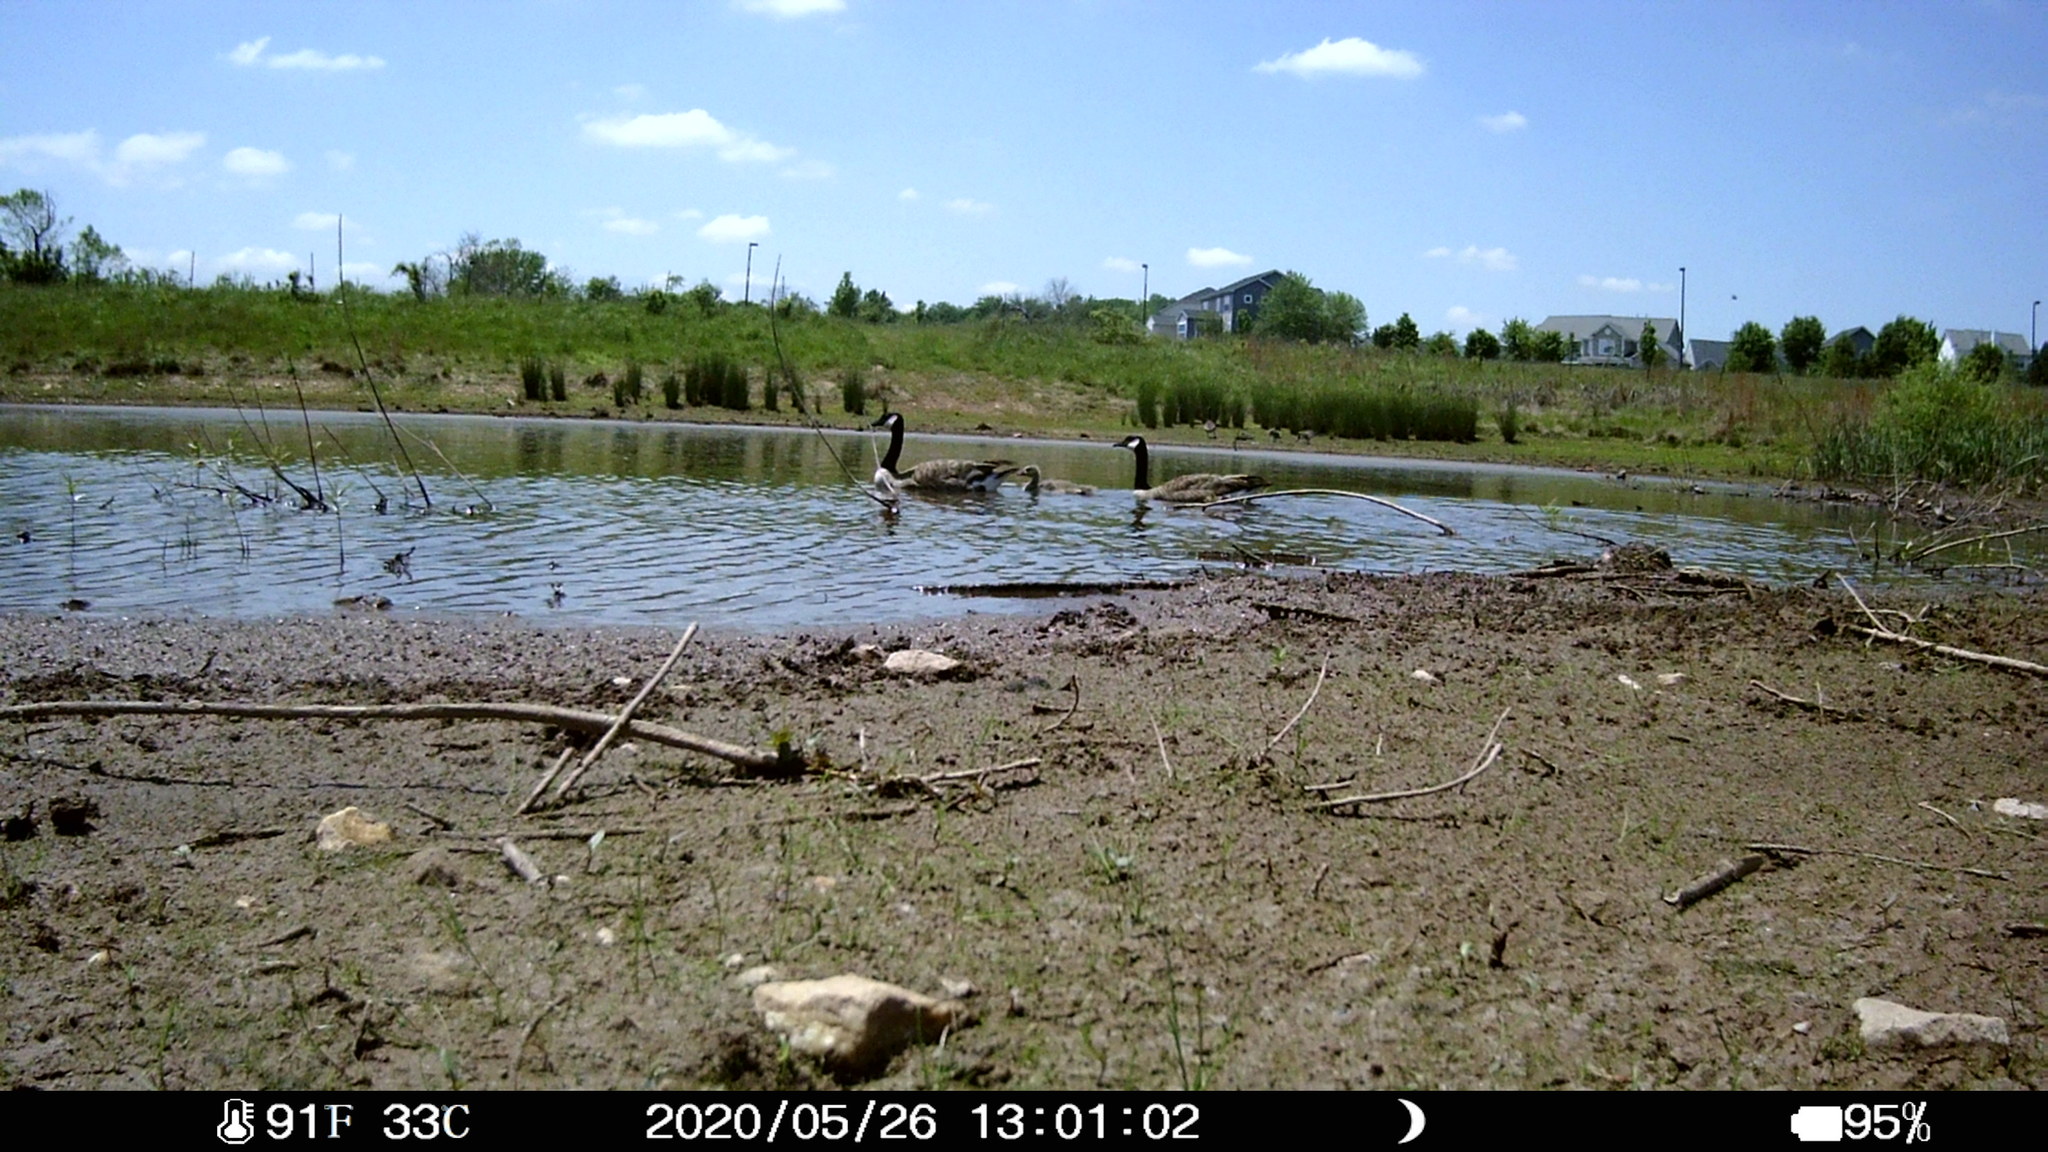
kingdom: Animalia
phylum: Chordata
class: Aves
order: Anseriformes
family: Anatidae
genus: Branta
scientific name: Branta canadensis
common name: Canada goose
